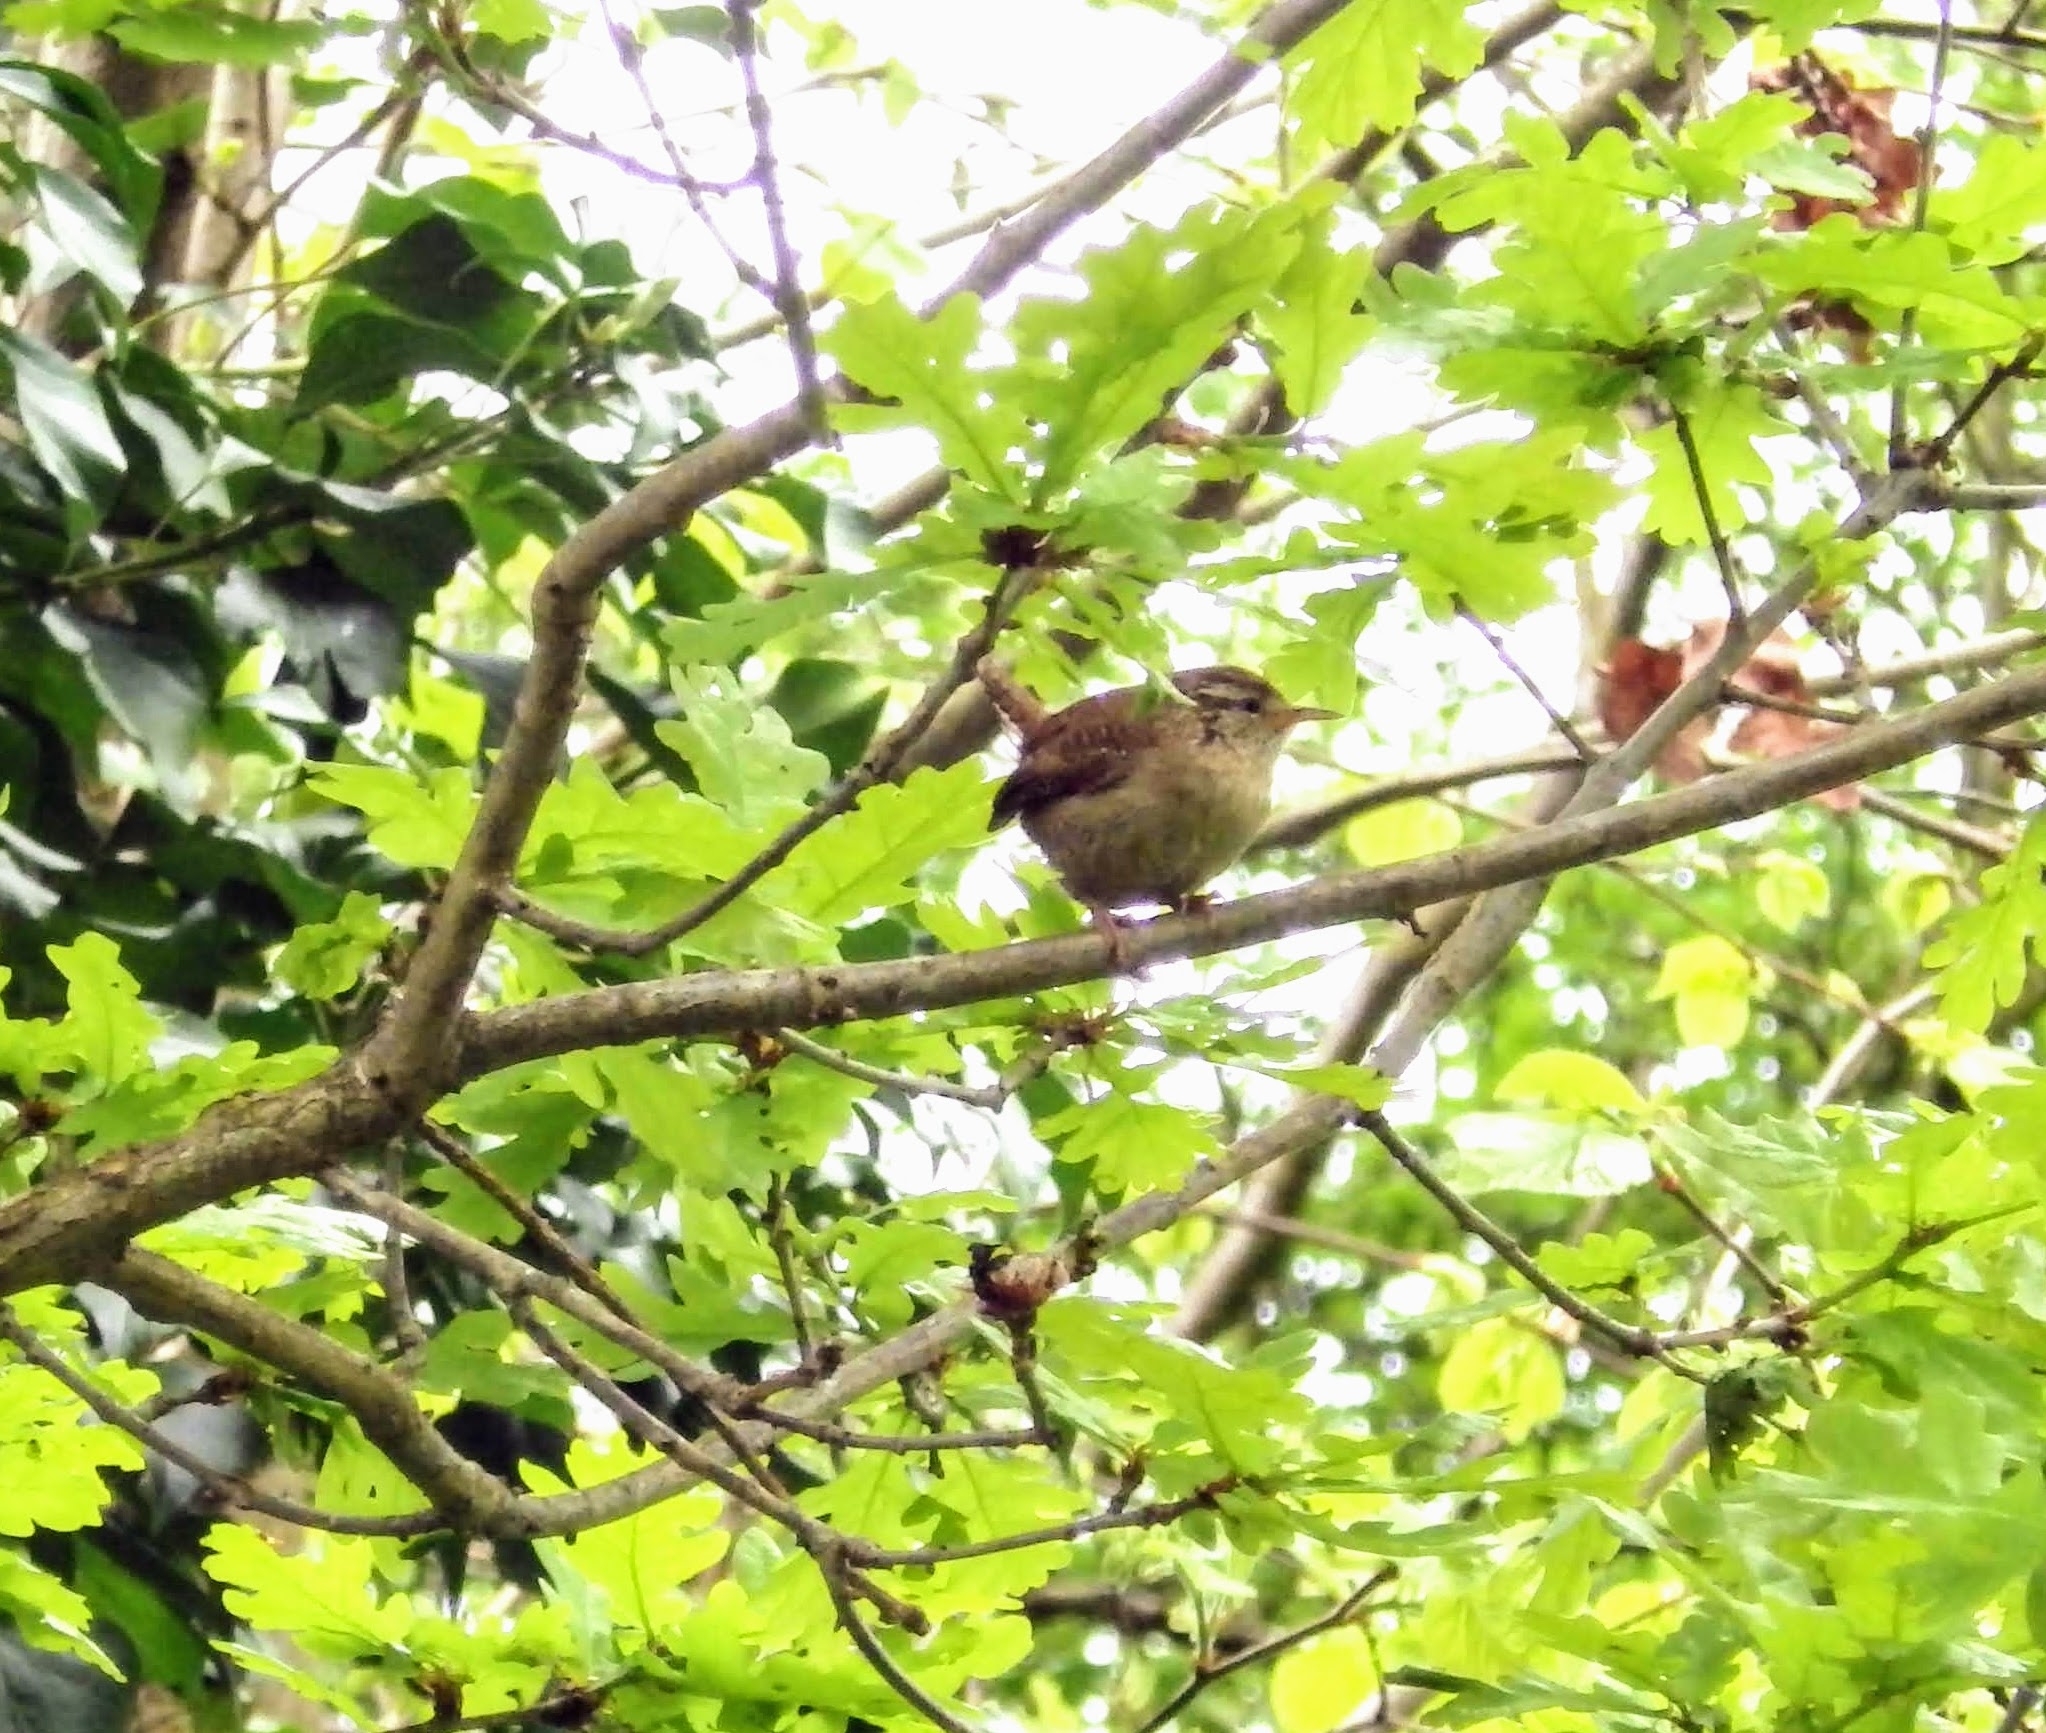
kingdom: Animalia
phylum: Chordata
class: Aves
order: Passeriformes
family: Troglodytidae
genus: Troglodytes
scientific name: Troglodytes troglodytes
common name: Eurasian wren
